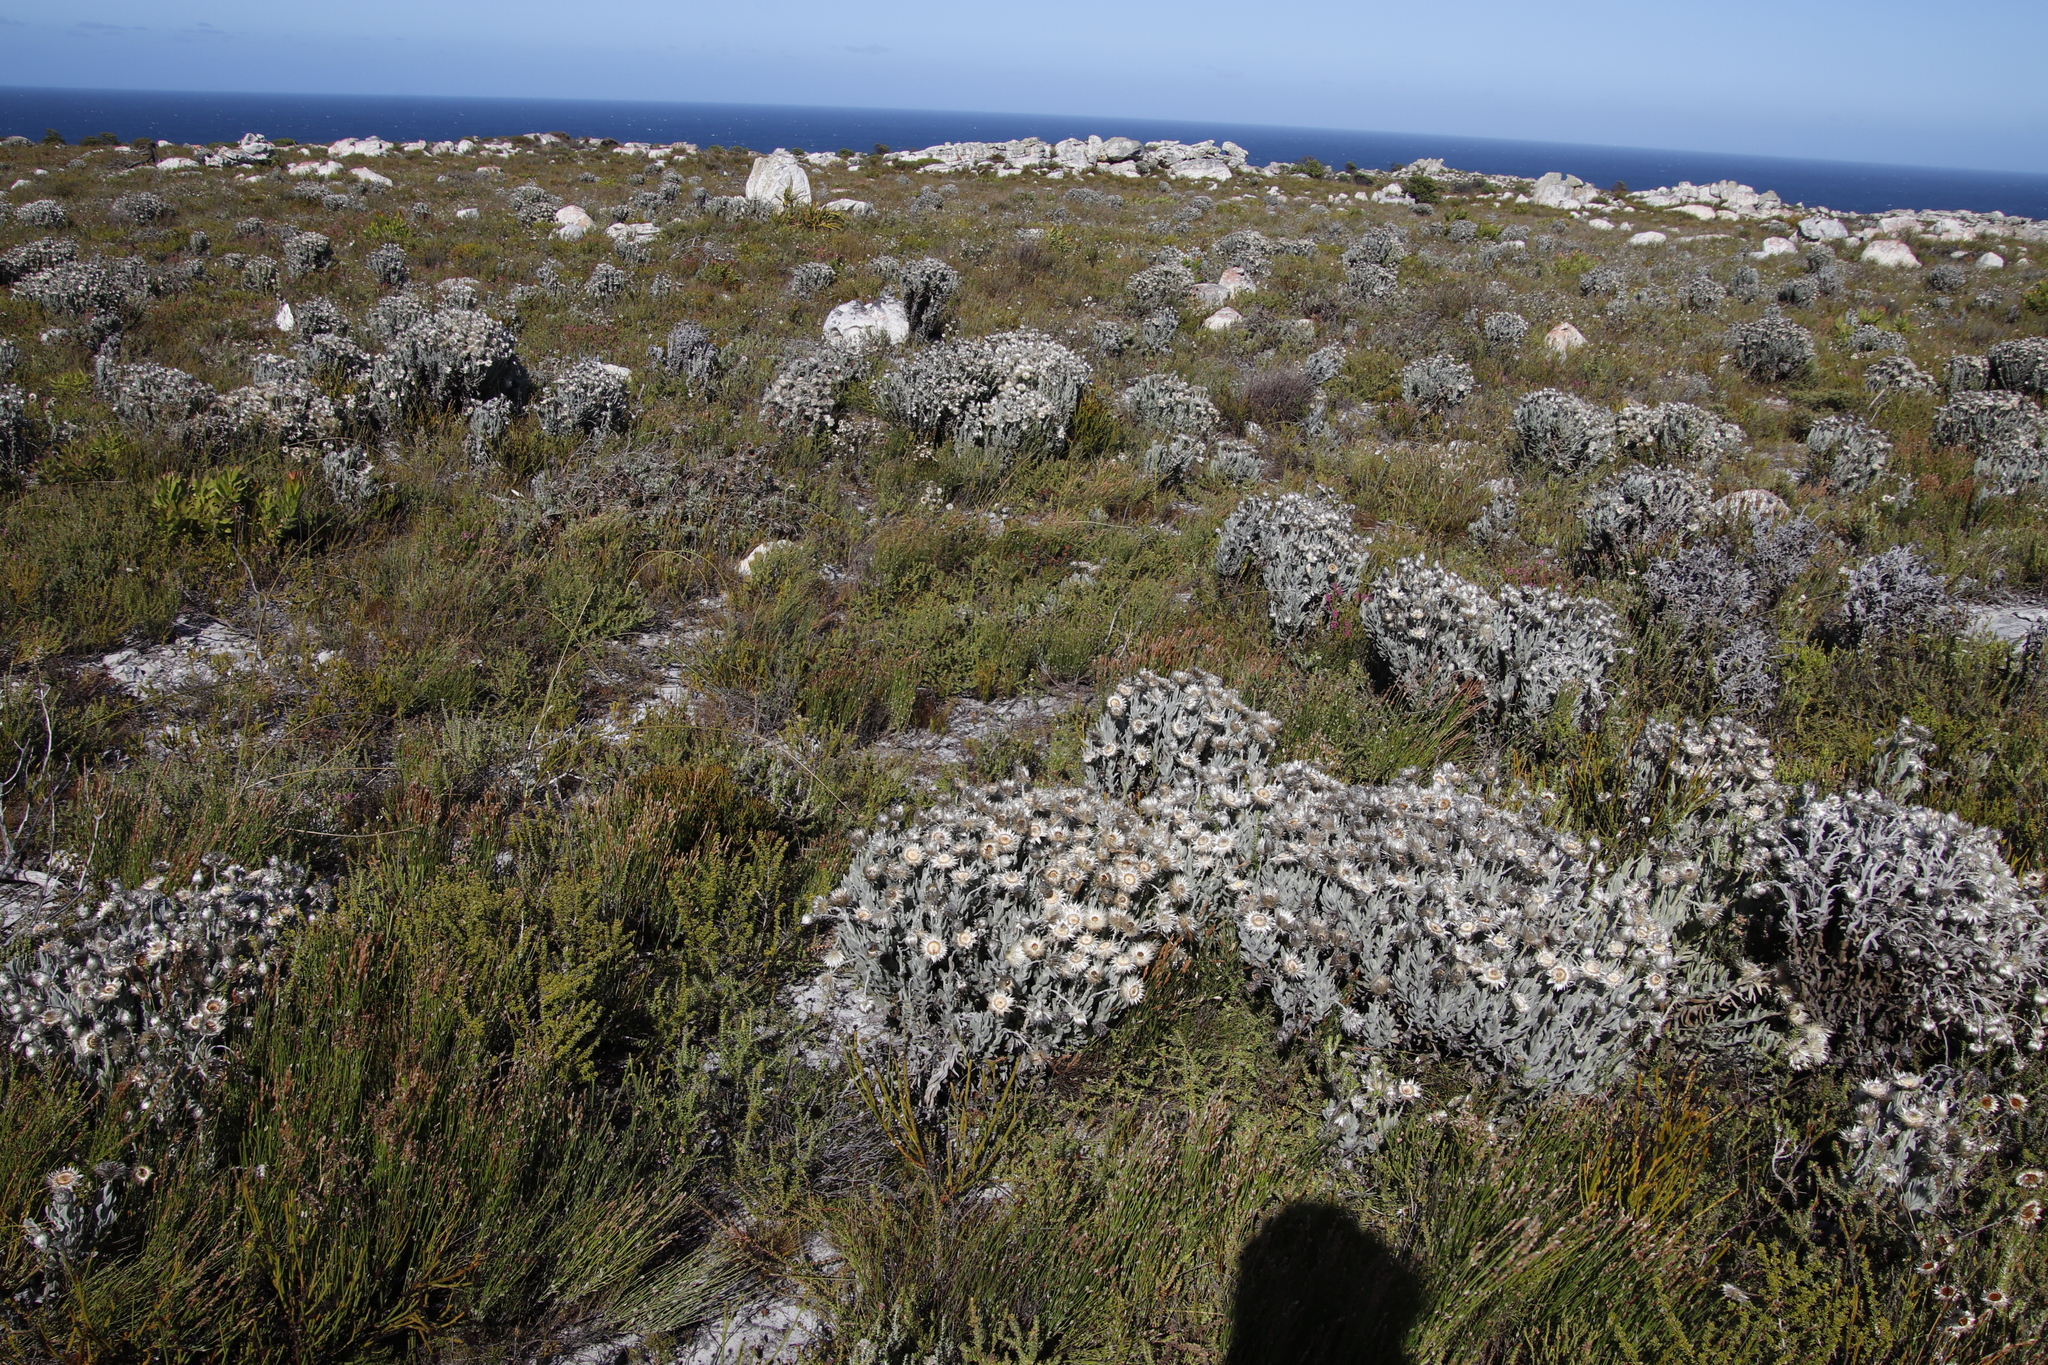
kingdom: Plantae
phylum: Tracheophyta
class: Magnoliopsida
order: Asterales
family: Asteraceae
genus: Syncarpha
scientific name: Syncarpha vestita
